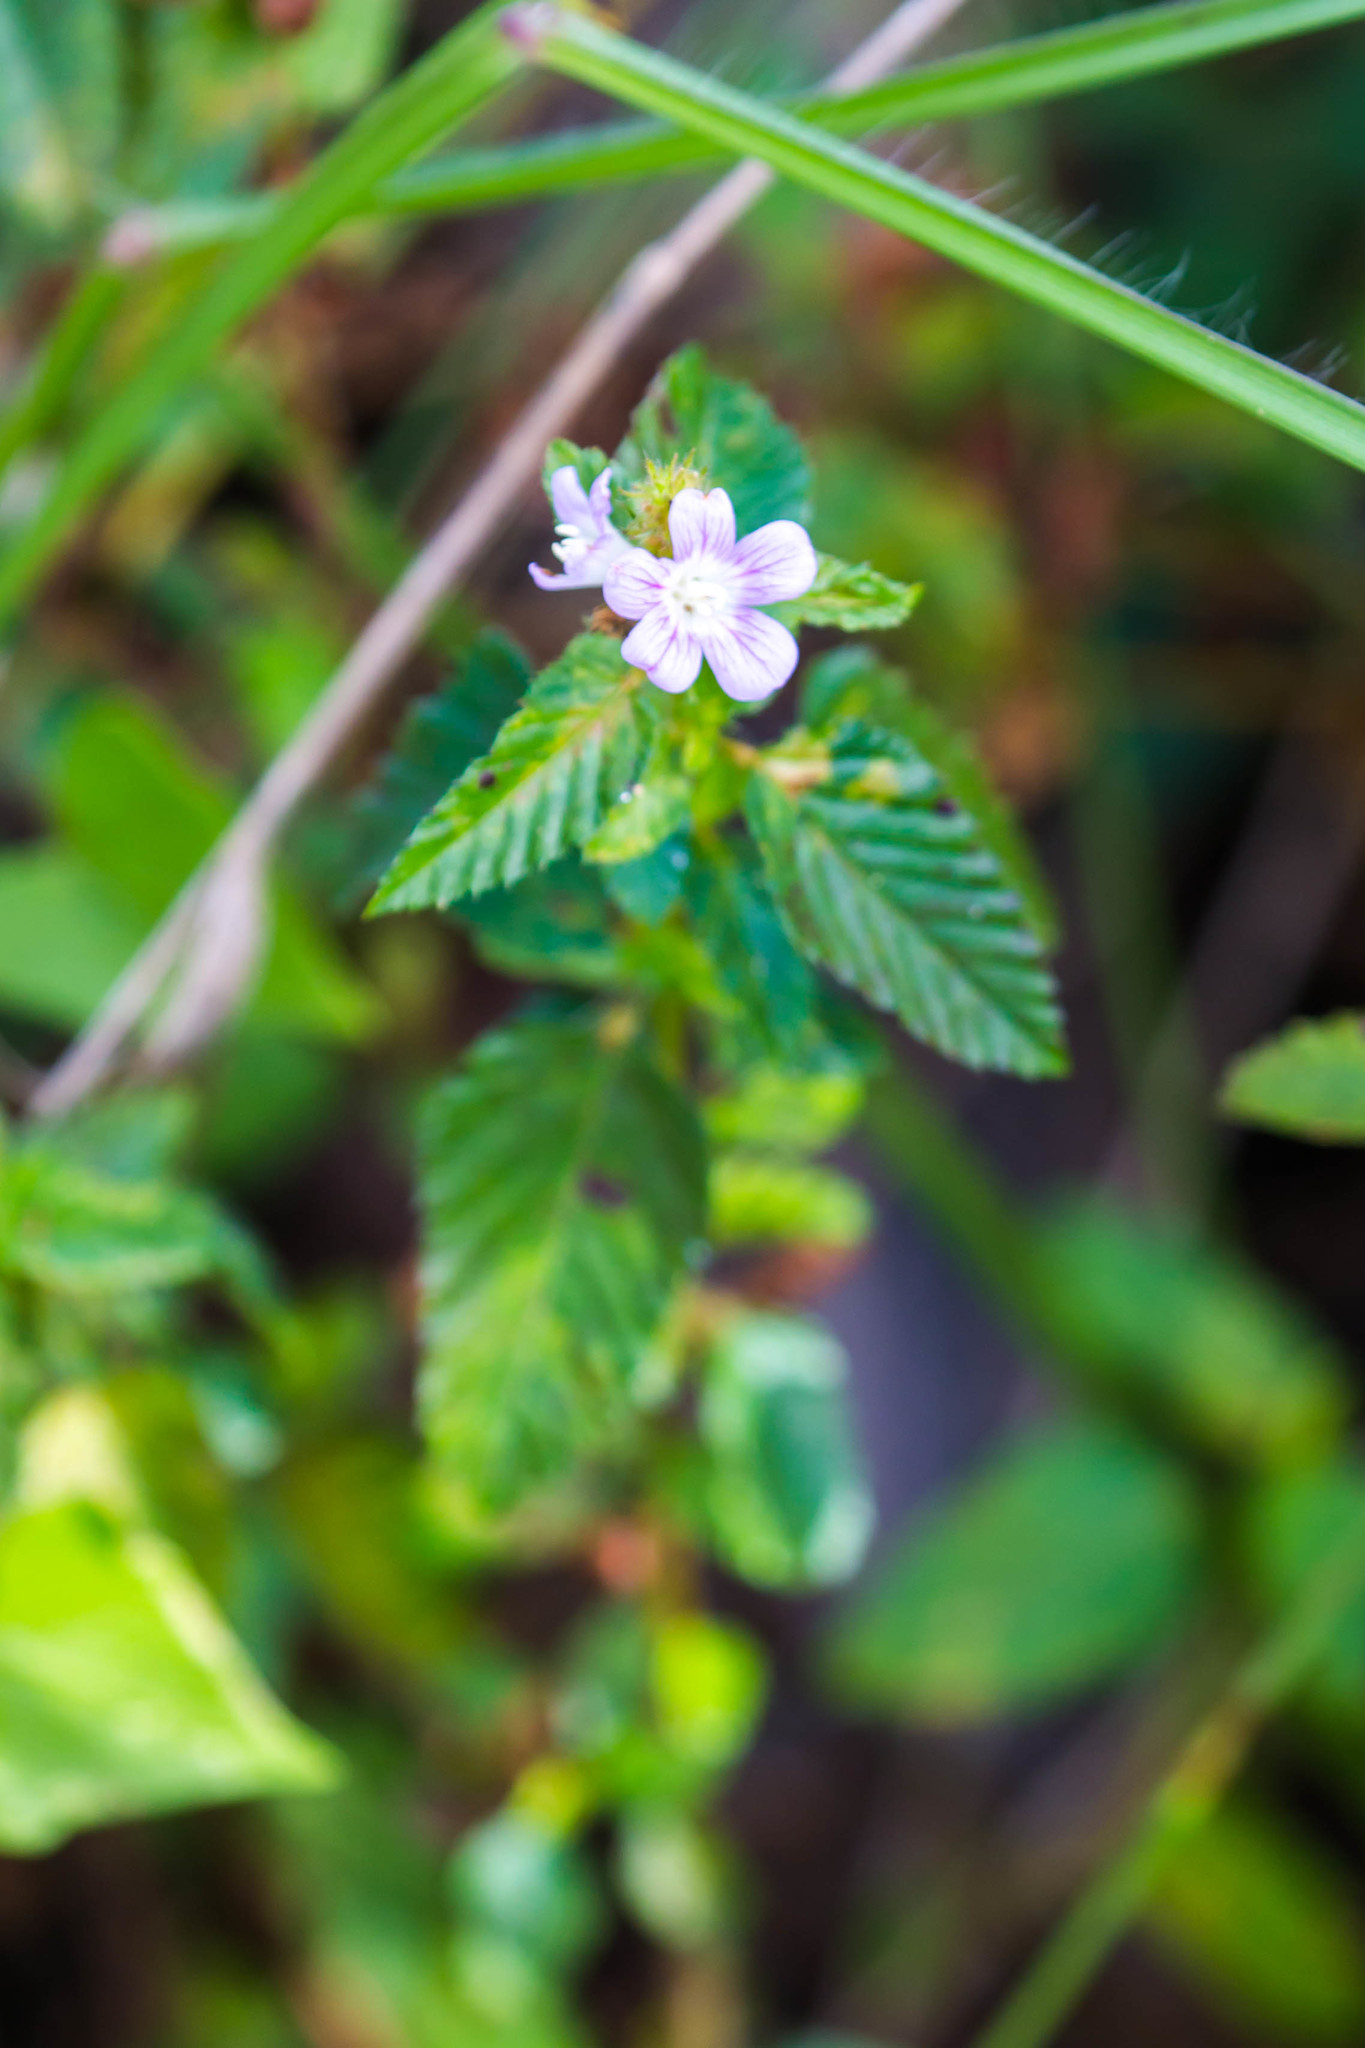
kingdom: Plantae
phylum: Tracheophyta
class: Magnoliopsida
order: Malvales
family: Malvaceae
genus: Melochia
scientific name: Melochia spicata
